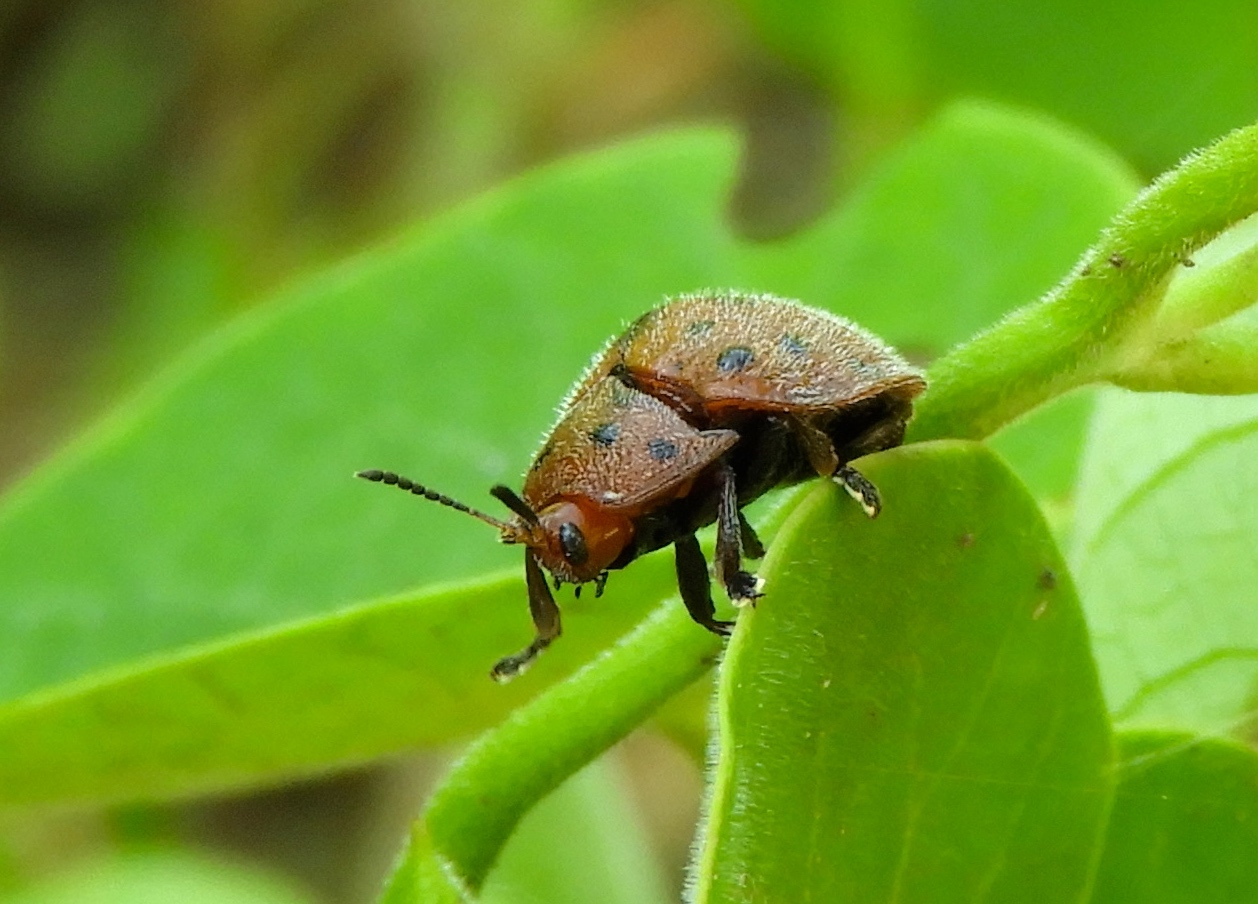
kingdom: Animalia
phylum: Arthropoda
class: Insecta
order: Coleoptera
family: Chrysomelidae
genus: Chelymorpha
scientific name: Chelymorpha
